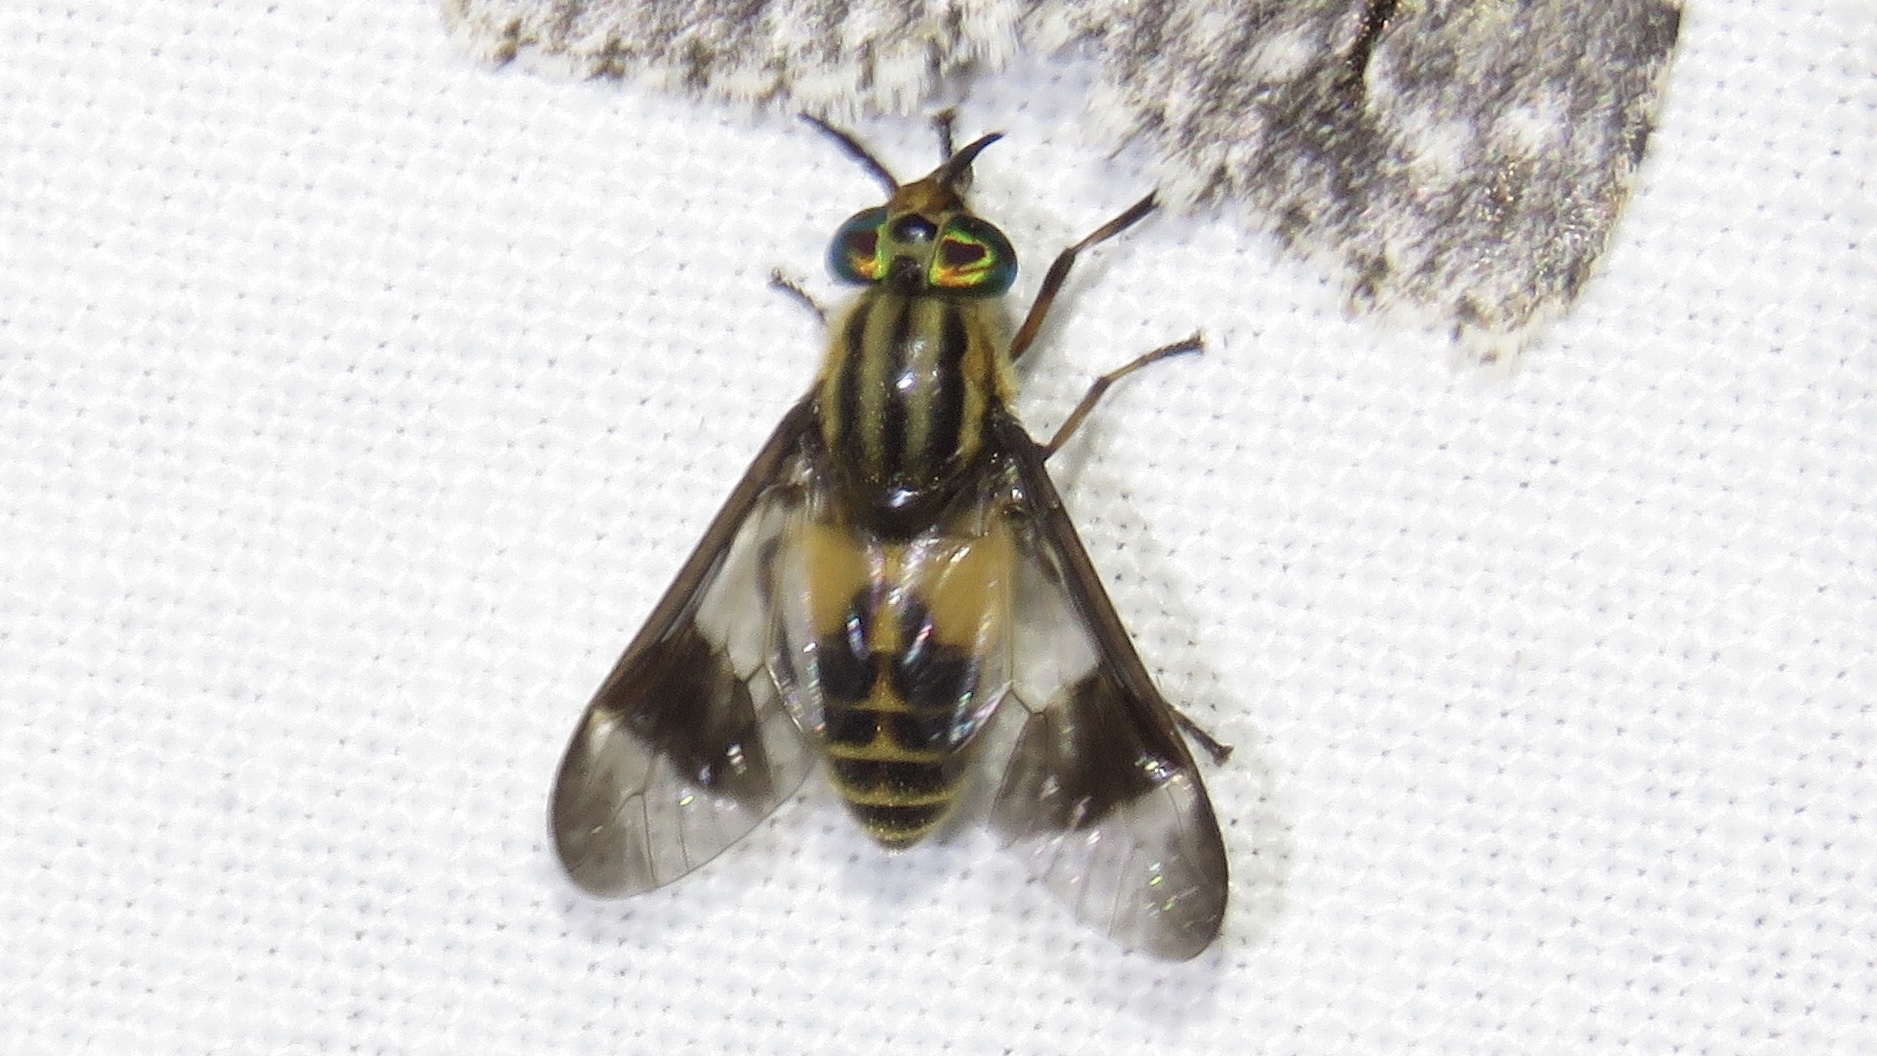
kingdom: Animalia
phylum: Arthropoda
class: Insecta
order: Diptera
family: Tabanidae
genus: Chrysops
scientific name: Chrysops geminatus
